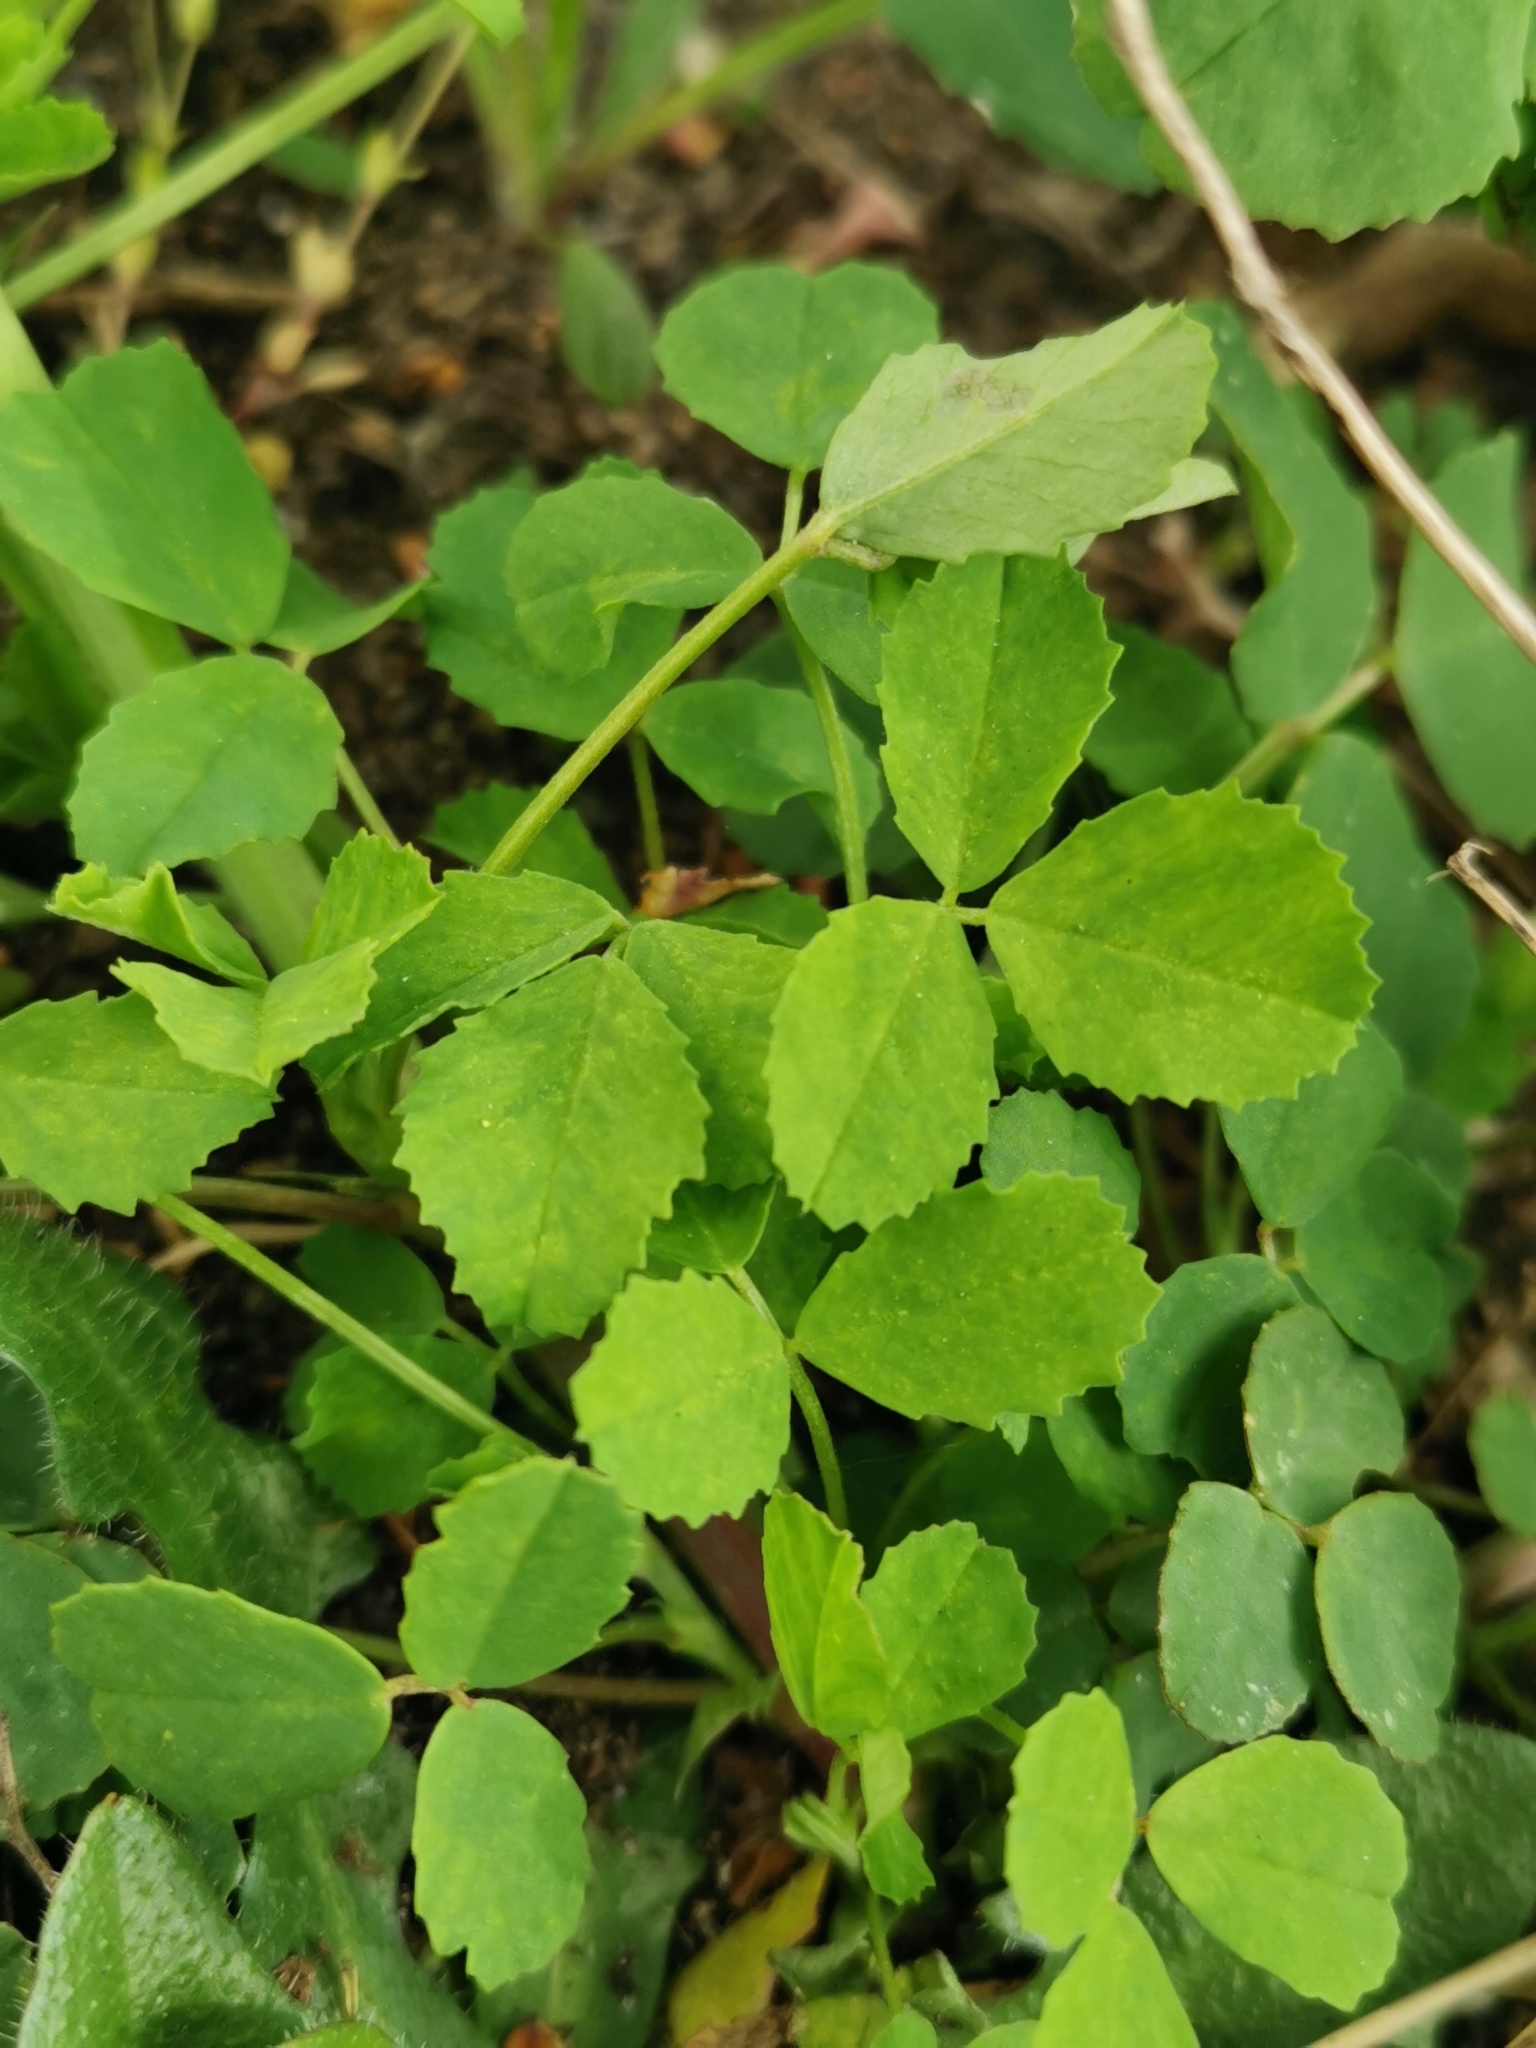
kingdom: Plantae
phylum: Tracheophyta
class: Magnoliopsida
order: Fabales
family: Fabaceae
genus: Melilotus
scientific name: Melilotus albus
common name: White melilot
